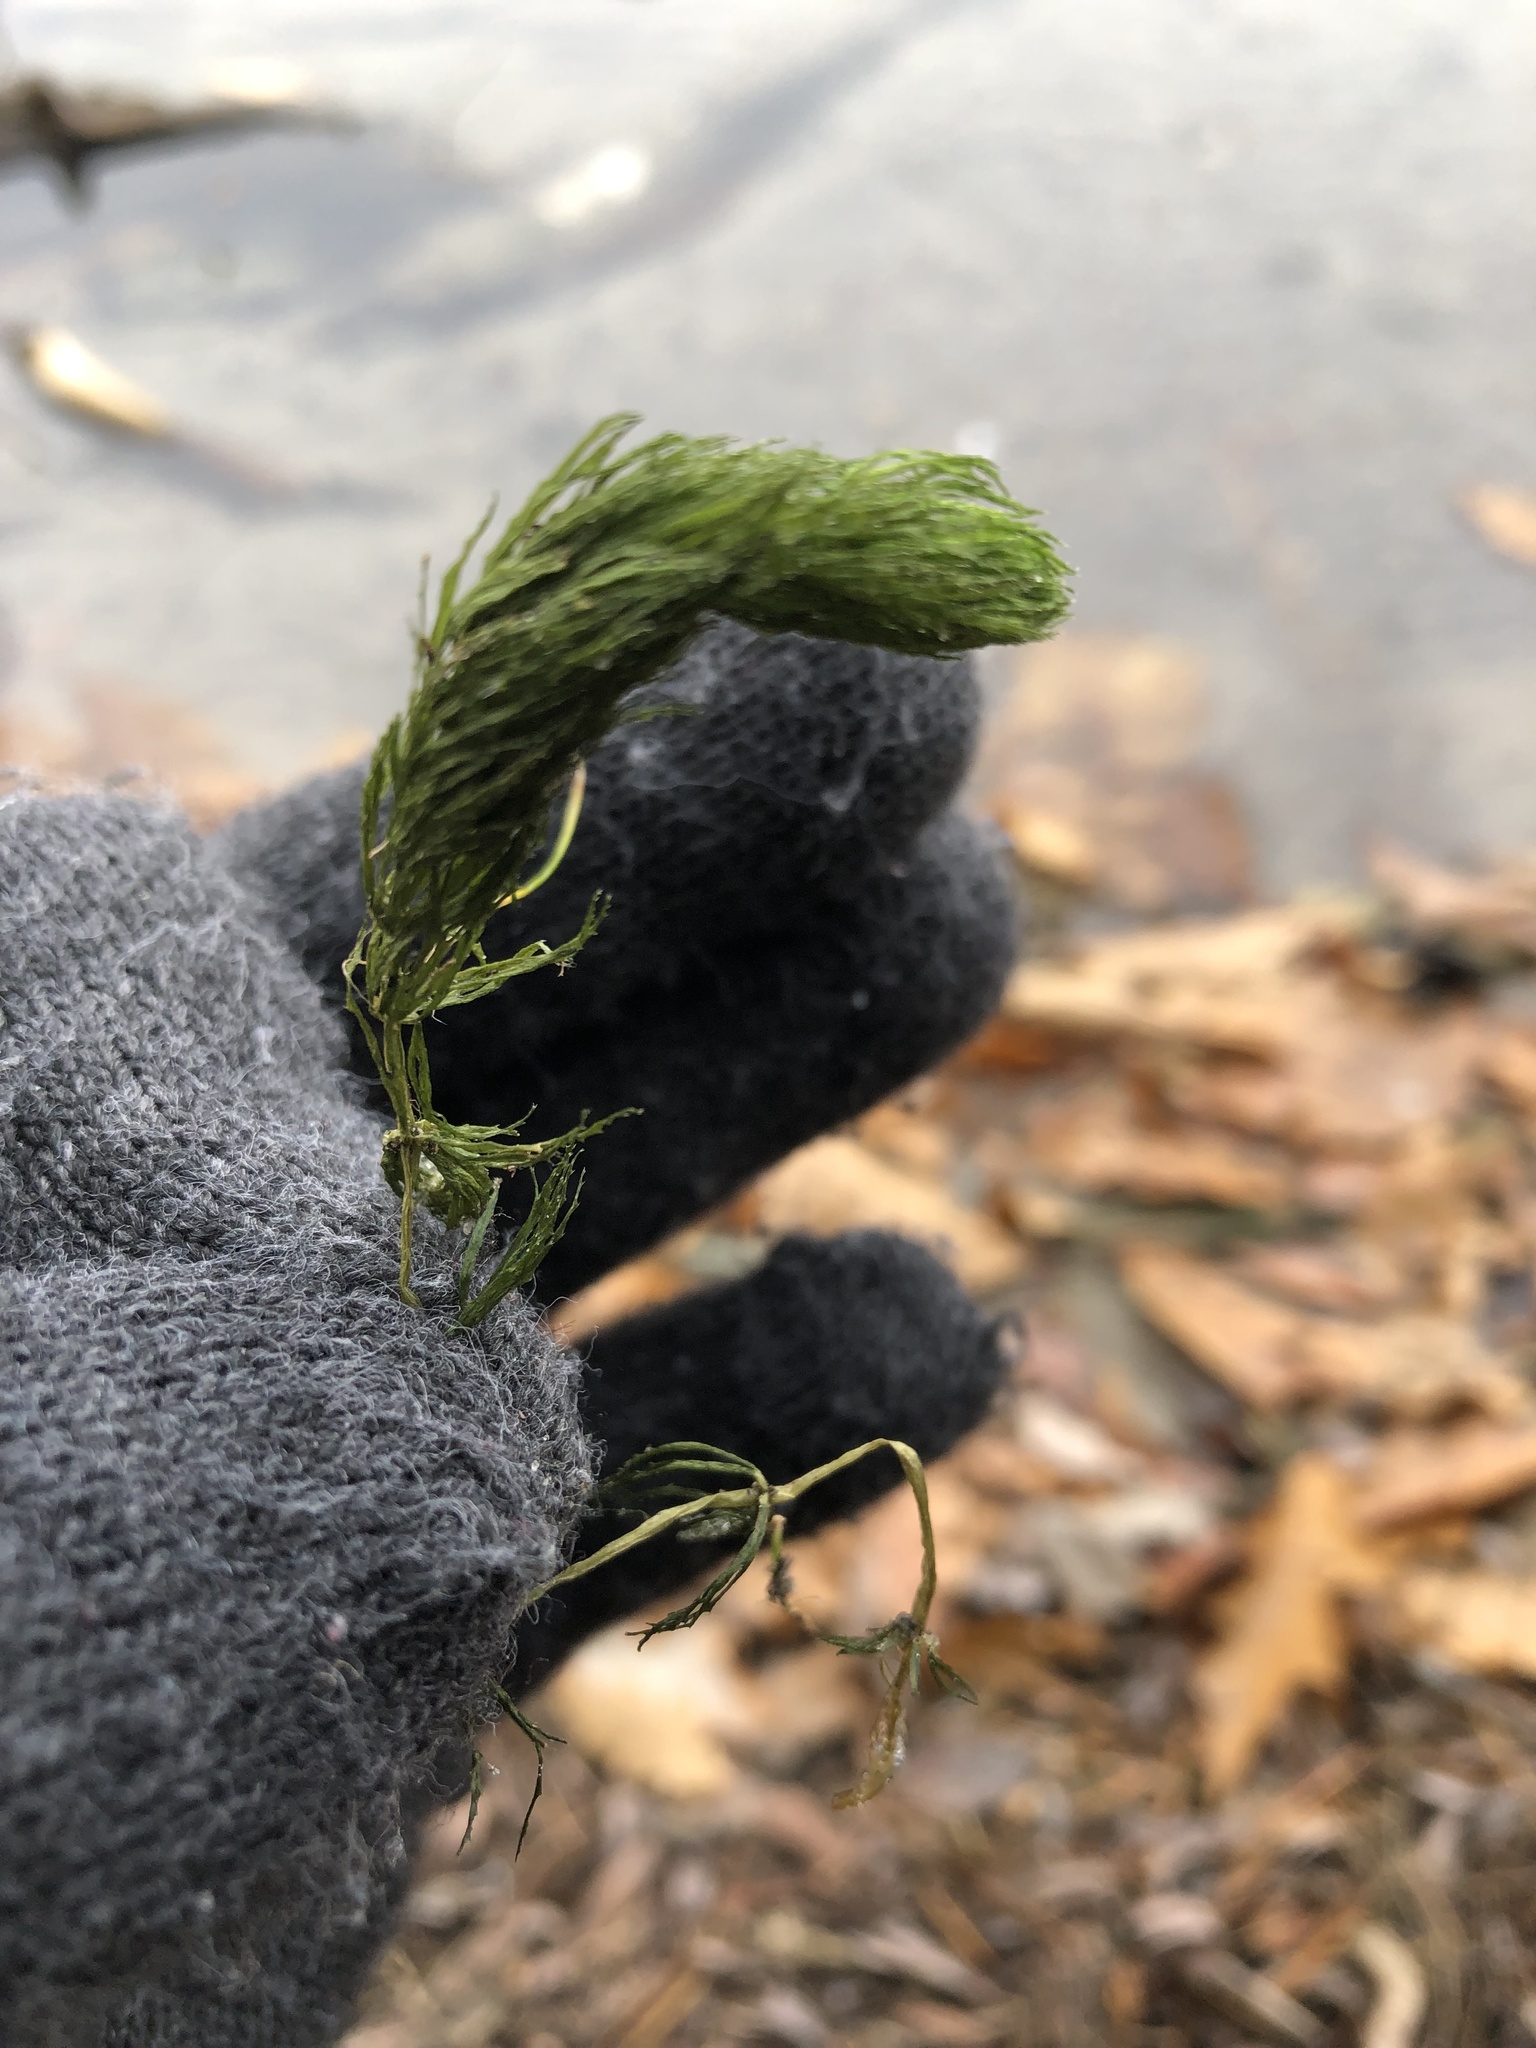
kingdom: Plantae
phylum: Tracheophyta
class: Magnoliopsida
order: Ceratophyllales
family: Ceratophyllaceae
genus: Ceratophyllum
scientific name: Ceratophyllum demersum
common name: Rigid hornwort
